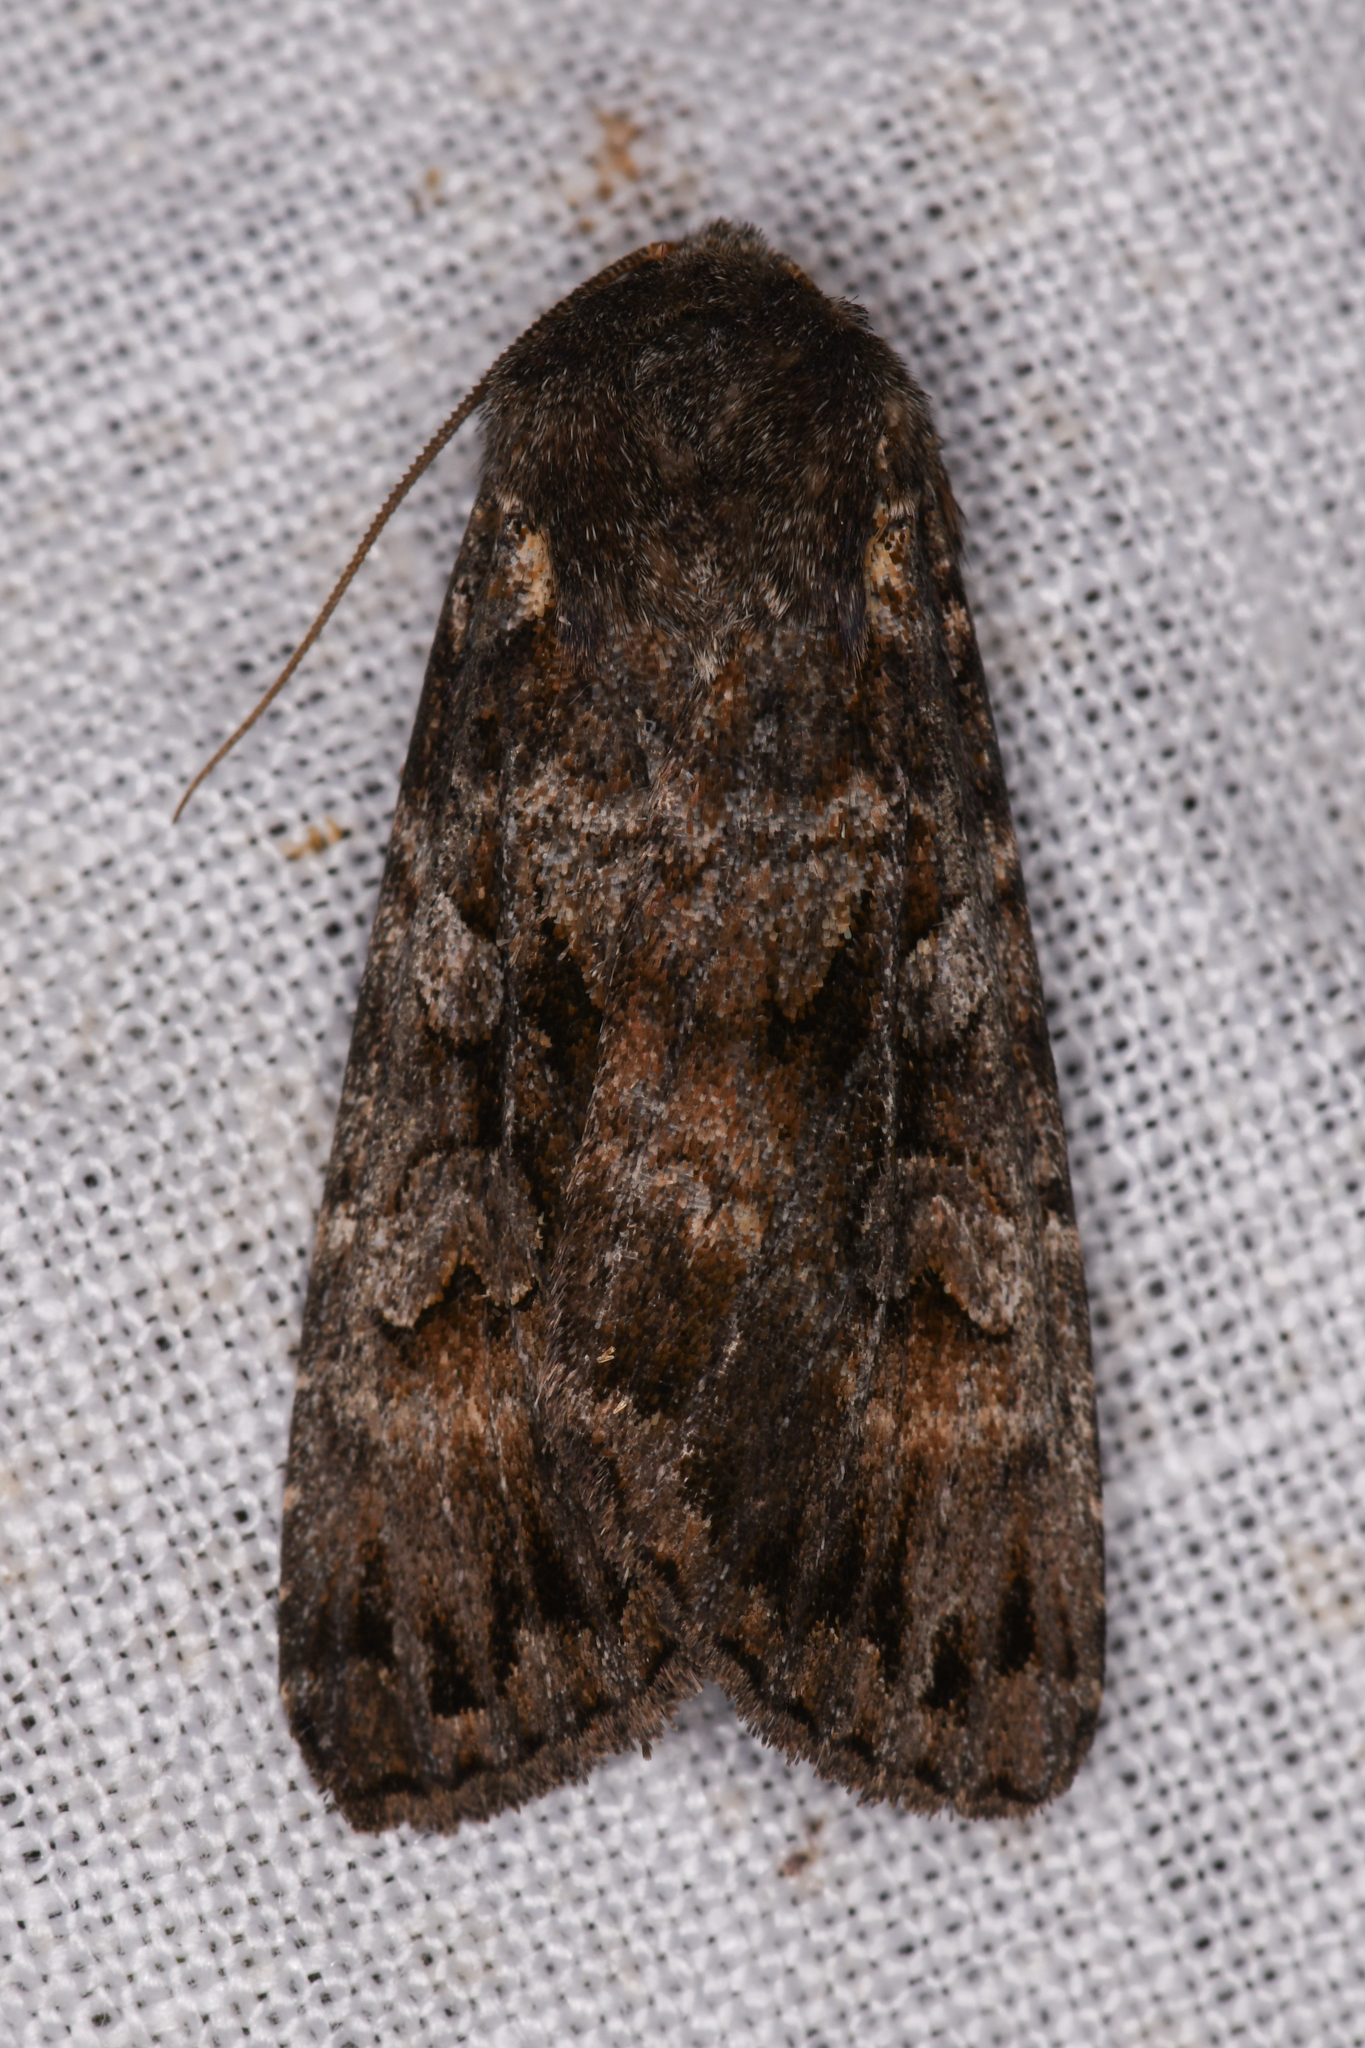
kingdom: Animalia
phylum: Arthropoda
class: Insecta
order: Lepidoptera
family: Noctuidae
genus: Eurois
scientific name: Eurois astricta
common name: Great brown dart
